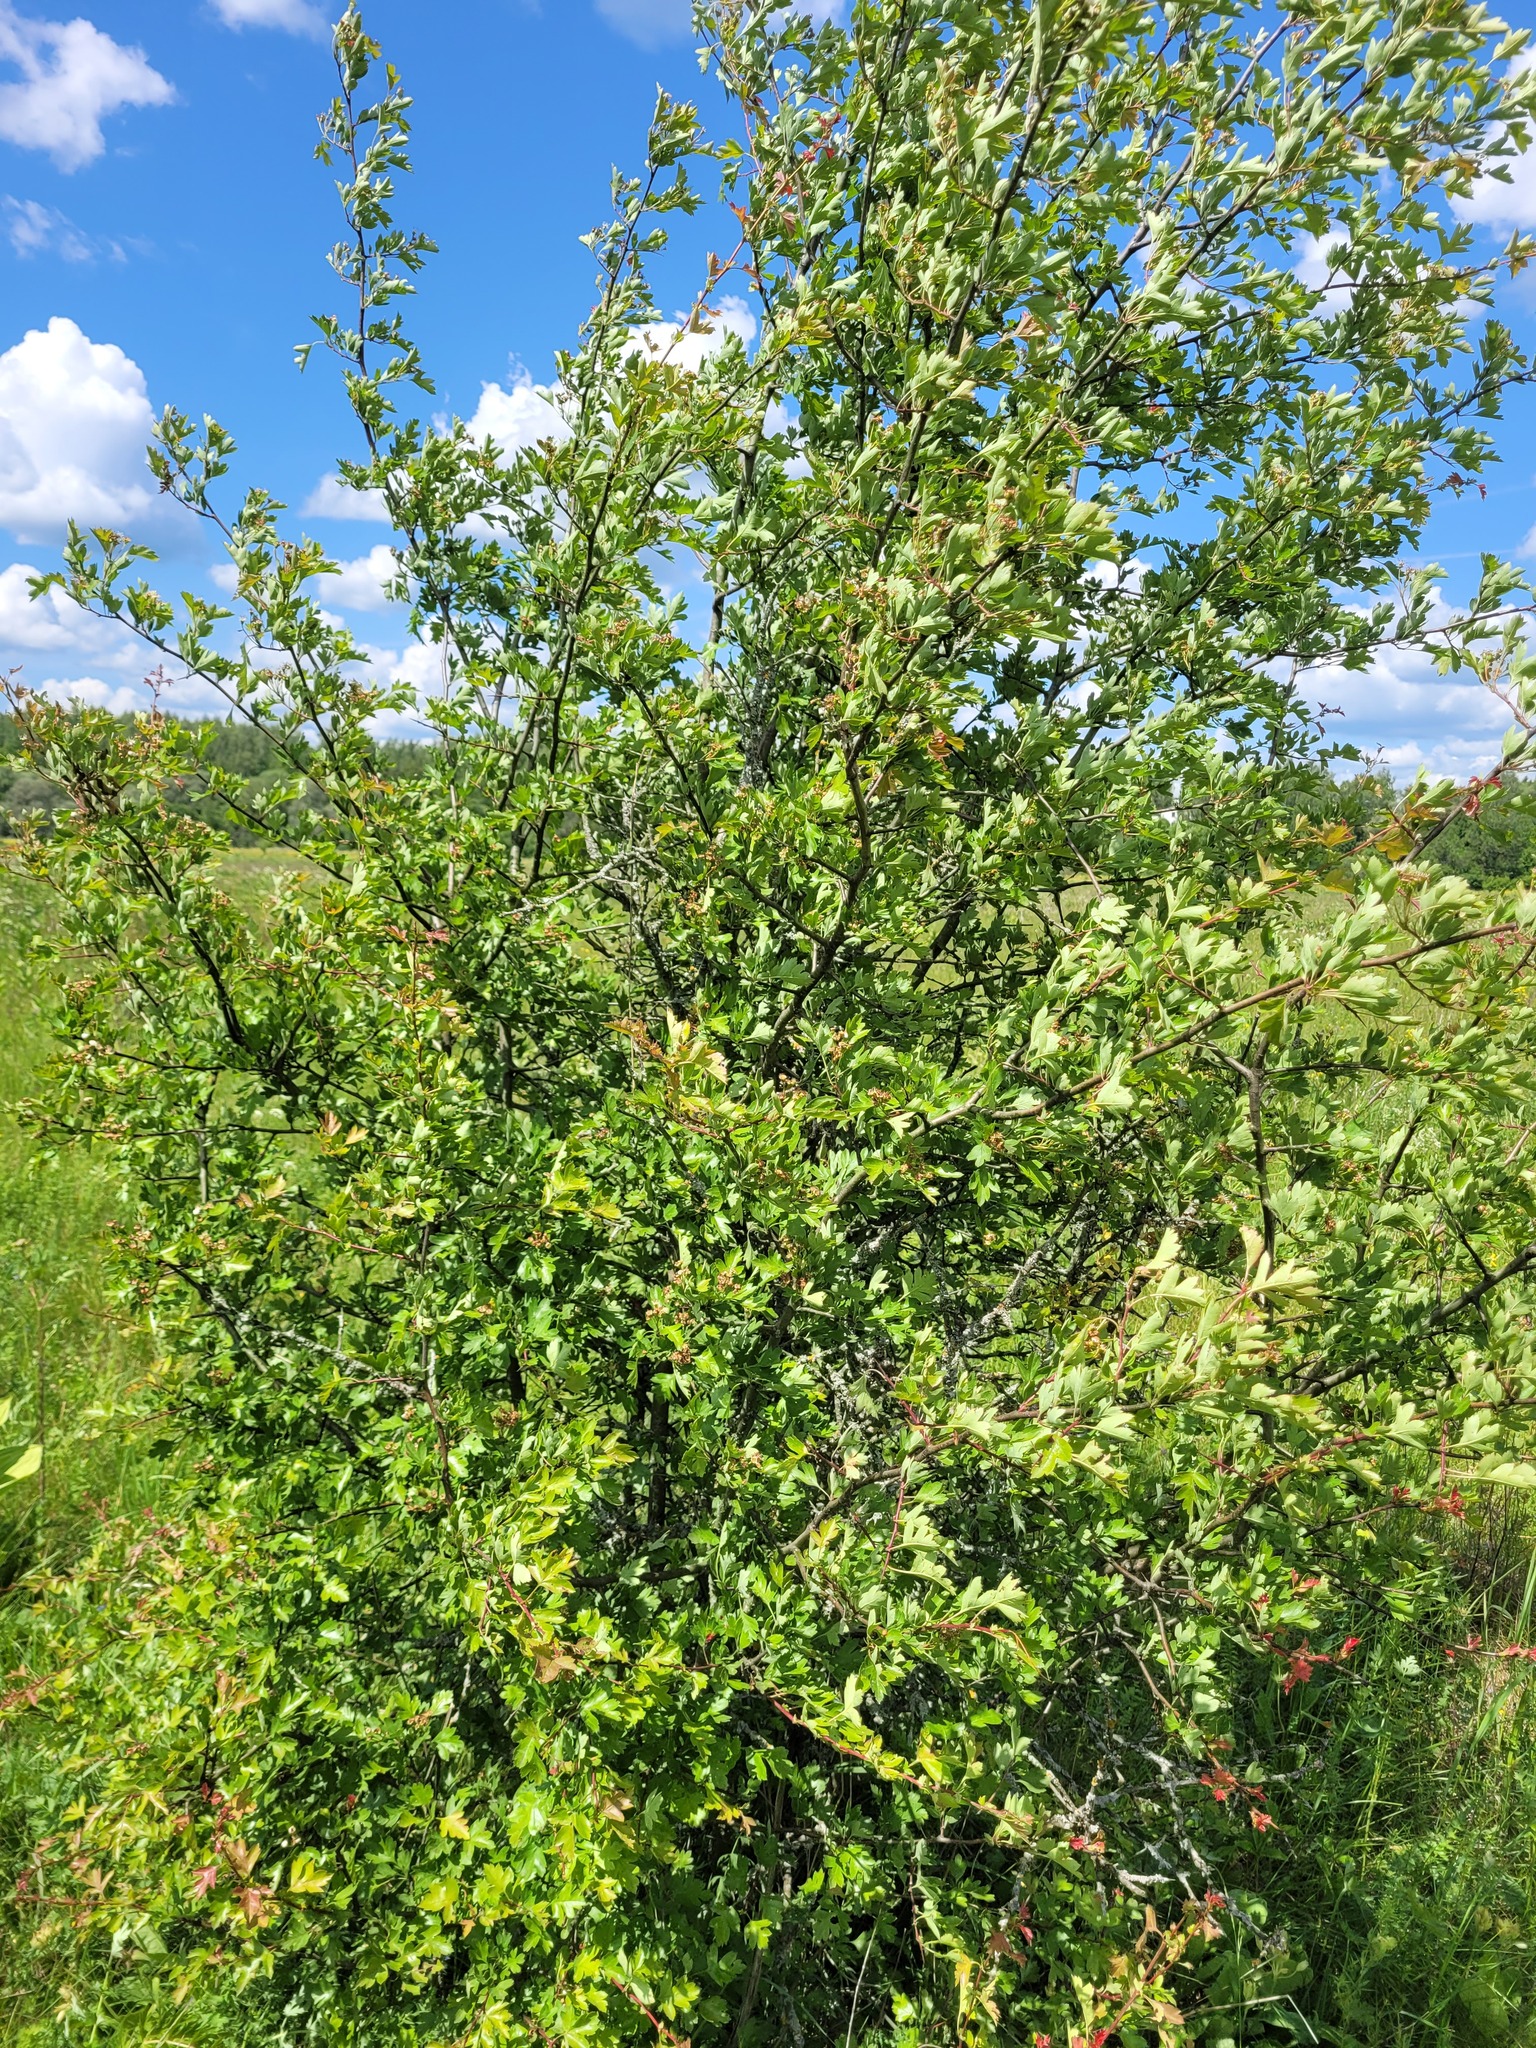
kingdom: Plantae
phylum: Tracheophyta
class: Magnoliopsida
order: Rosales
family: Rosaceae
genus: Crataegus
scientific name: Crataegus monogyna
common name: Hawthorn
